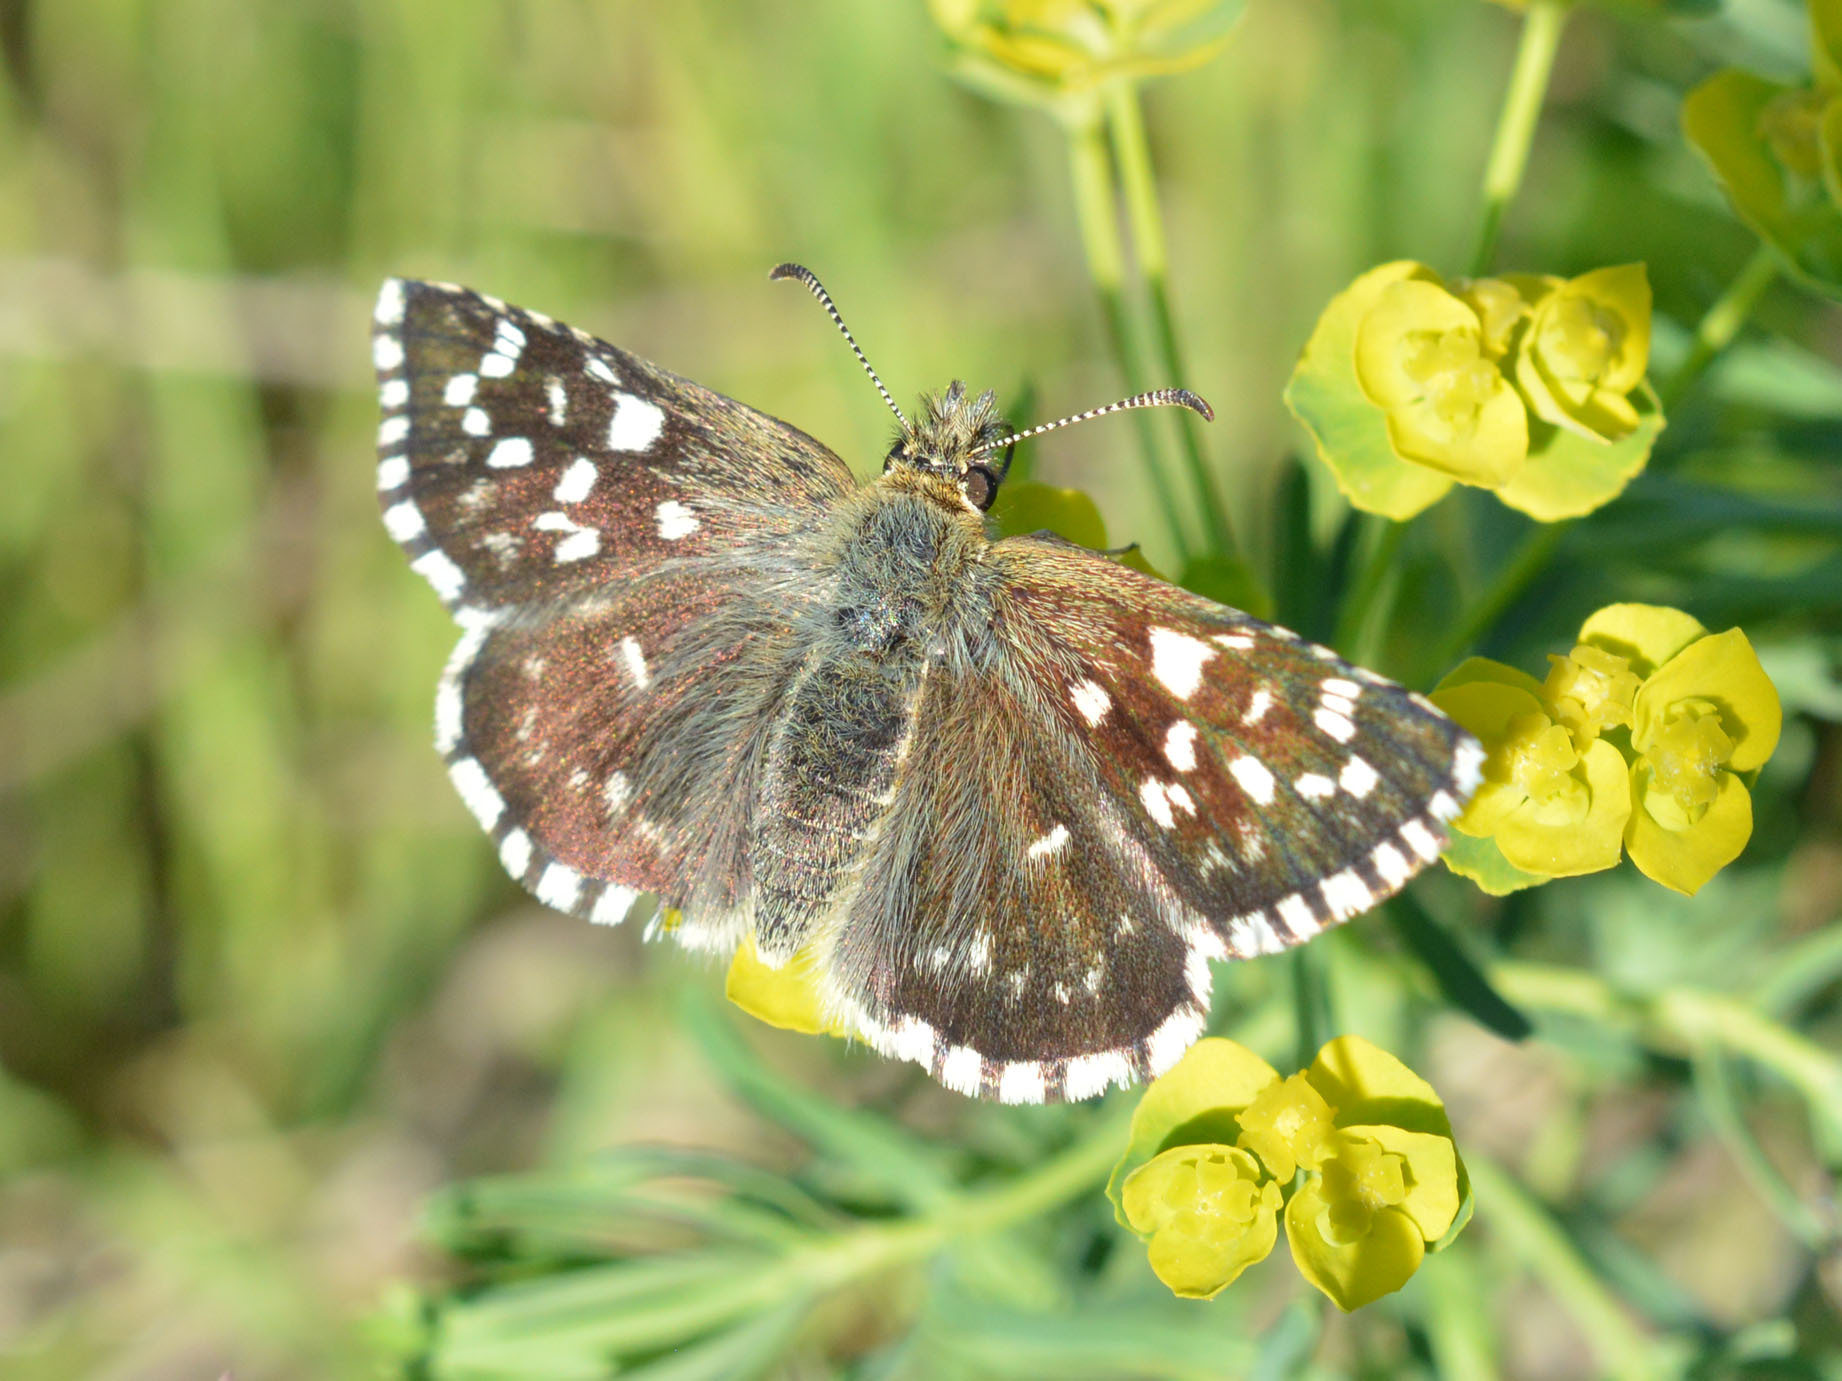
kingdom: Animalia
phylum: Arthropoda
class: Insecta
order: Lepidoptera
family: Hesperiidae
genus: Pyrgus
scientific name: Pyrgus malvae
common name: Grizzled skipper
